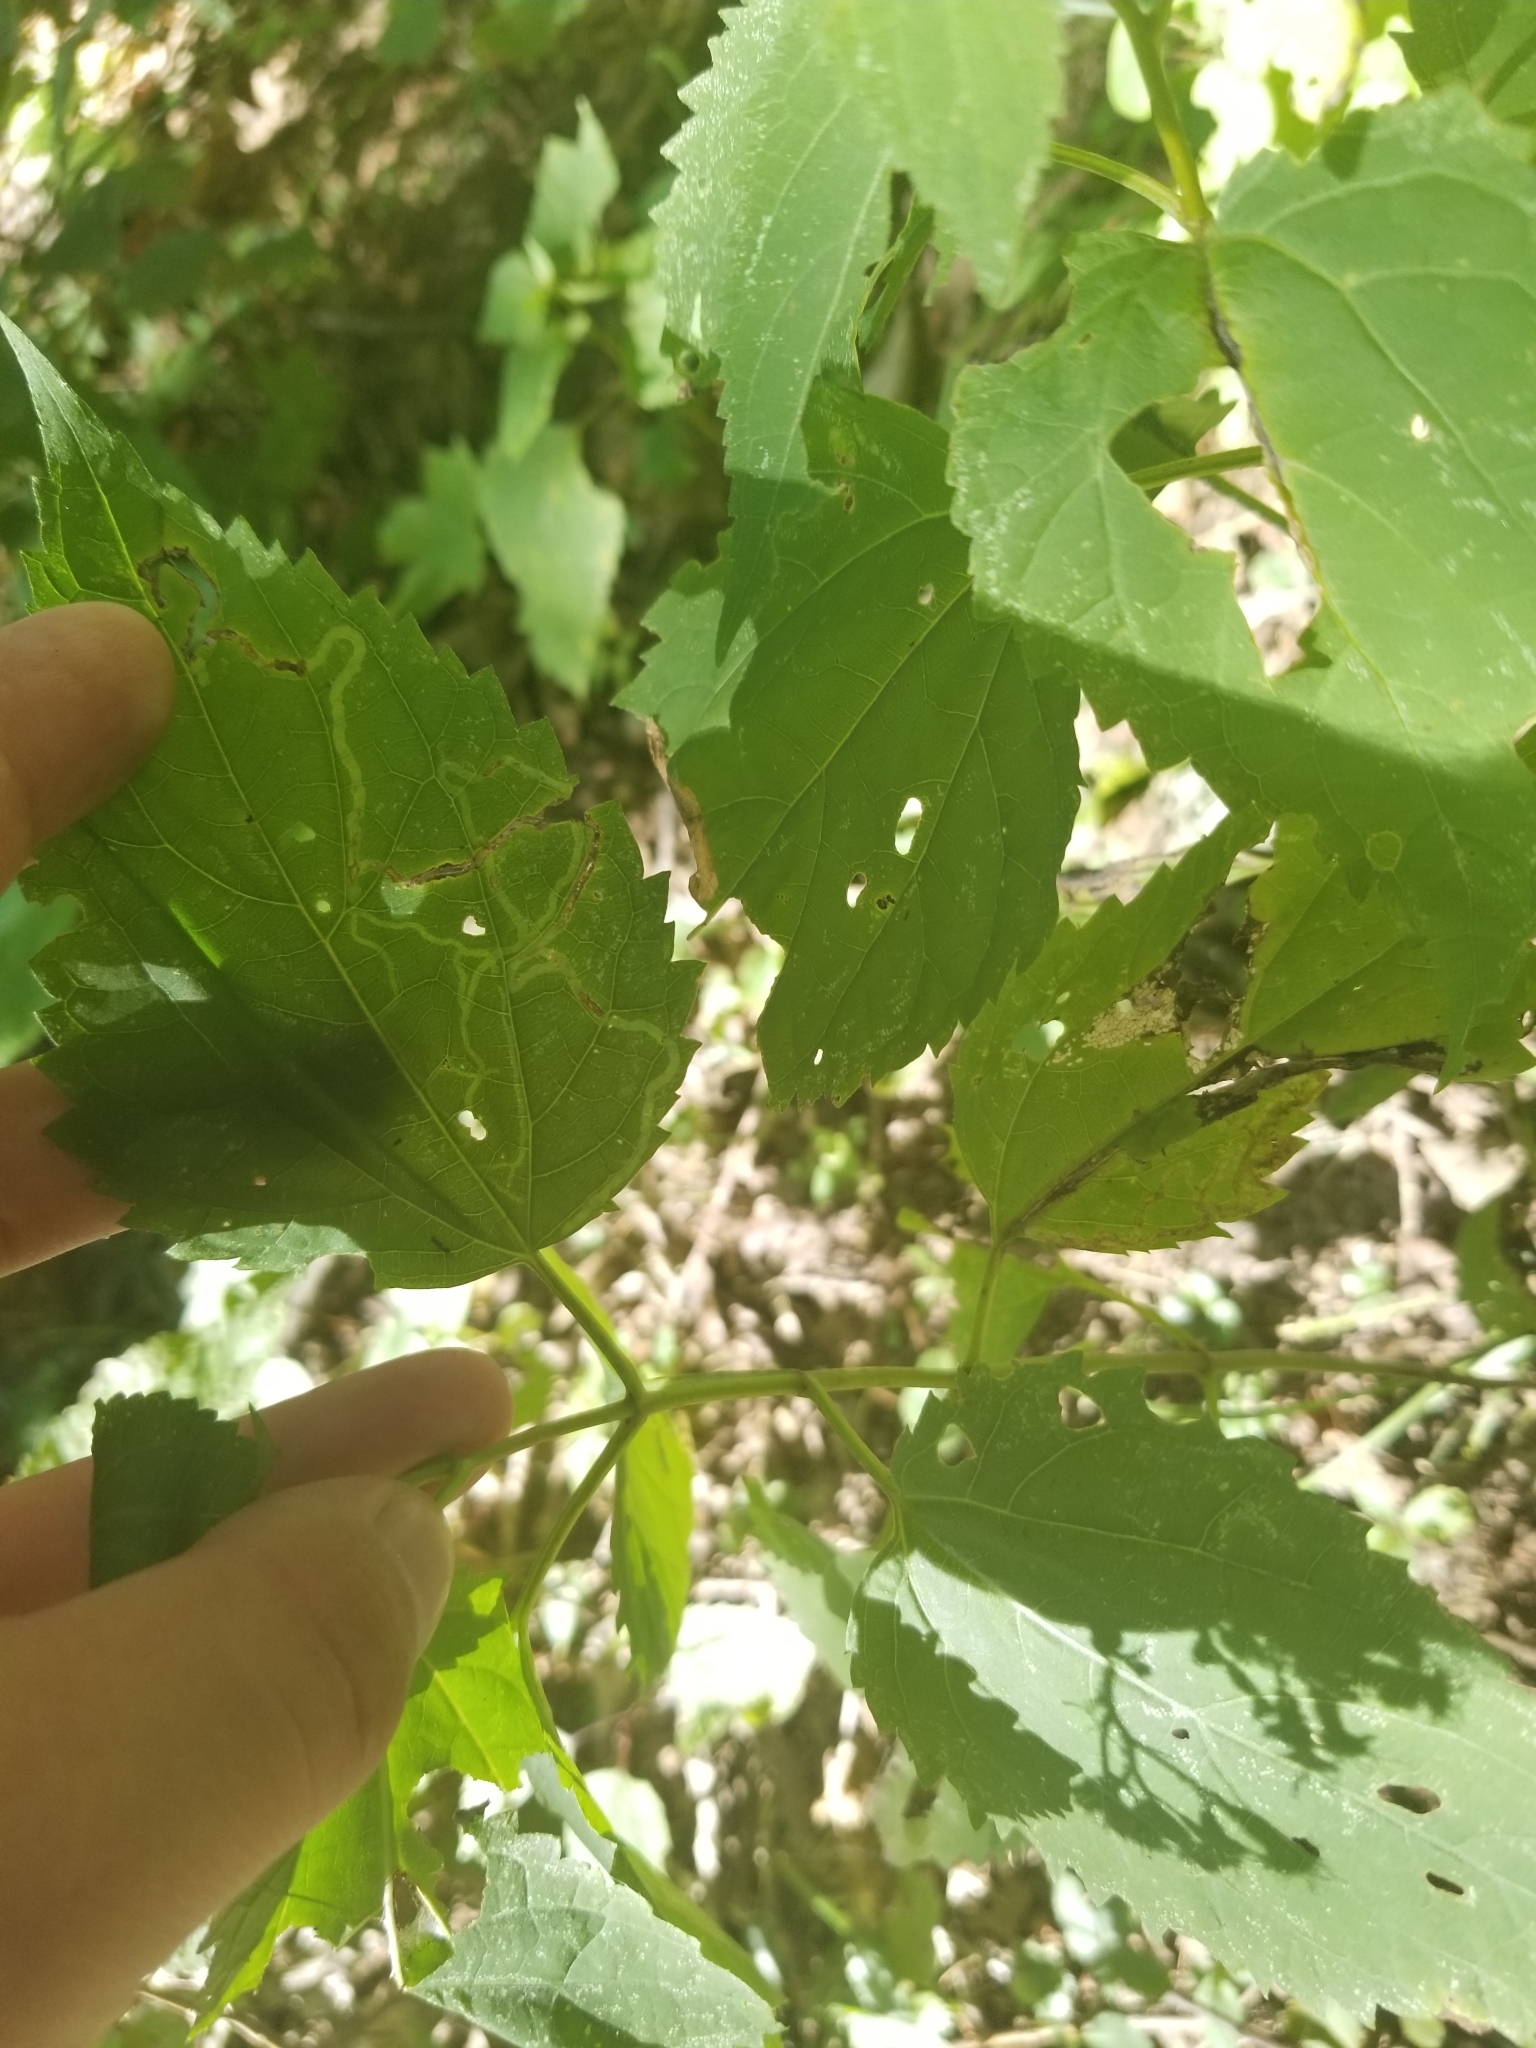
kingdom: Plantae
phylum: Tracheophyta
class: Magnoliopsida
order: Asterales
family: Asteraceae
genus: Ageratina
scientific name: Ageratina altissima
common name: White snakeroot
